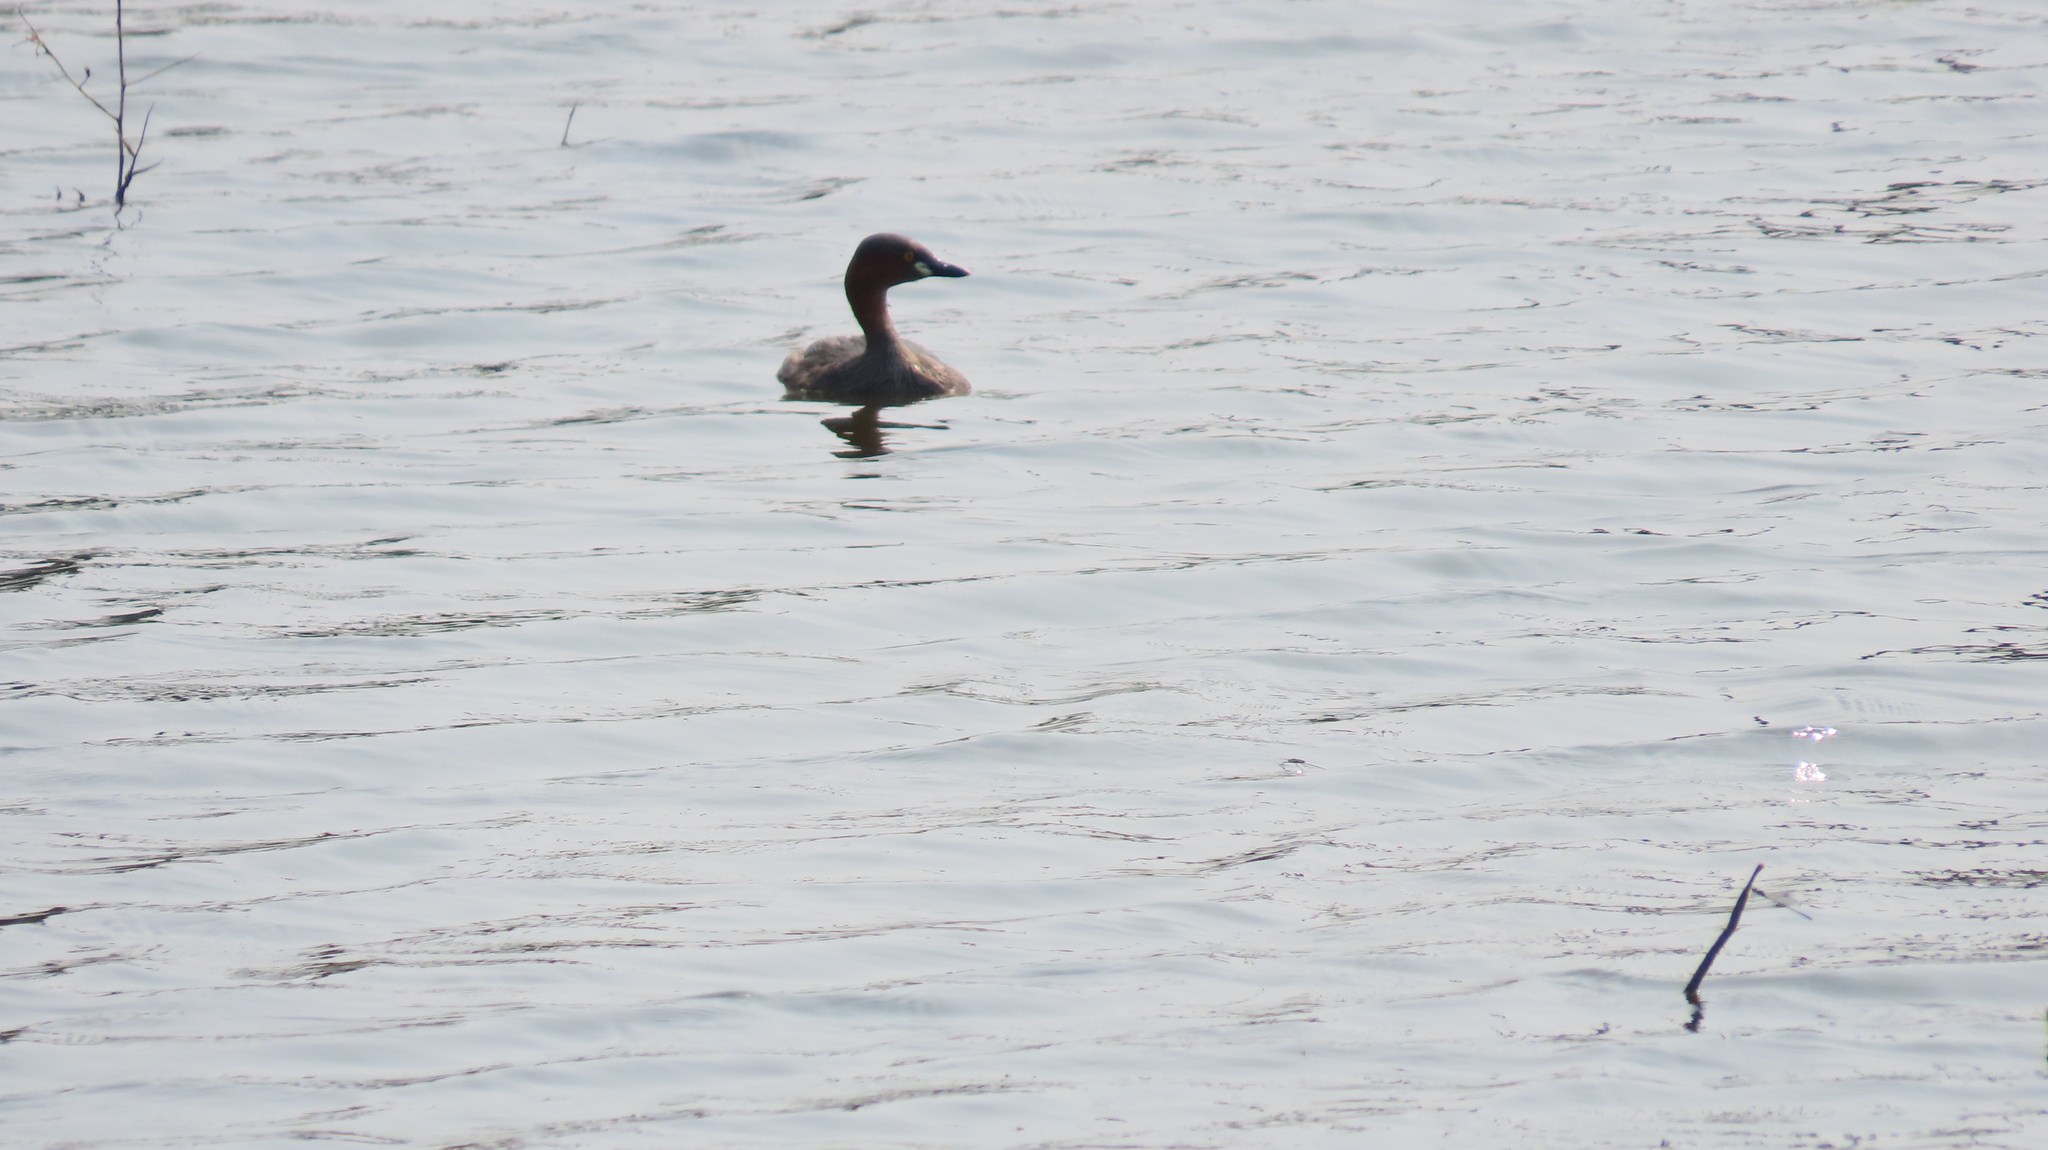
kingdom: Animalia
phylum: Chordata
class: Aves
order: Podicipediformes
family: Podicipedidae
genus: Tachybaptus
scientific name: Tachybaptus ruficollis
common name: Little grebe
